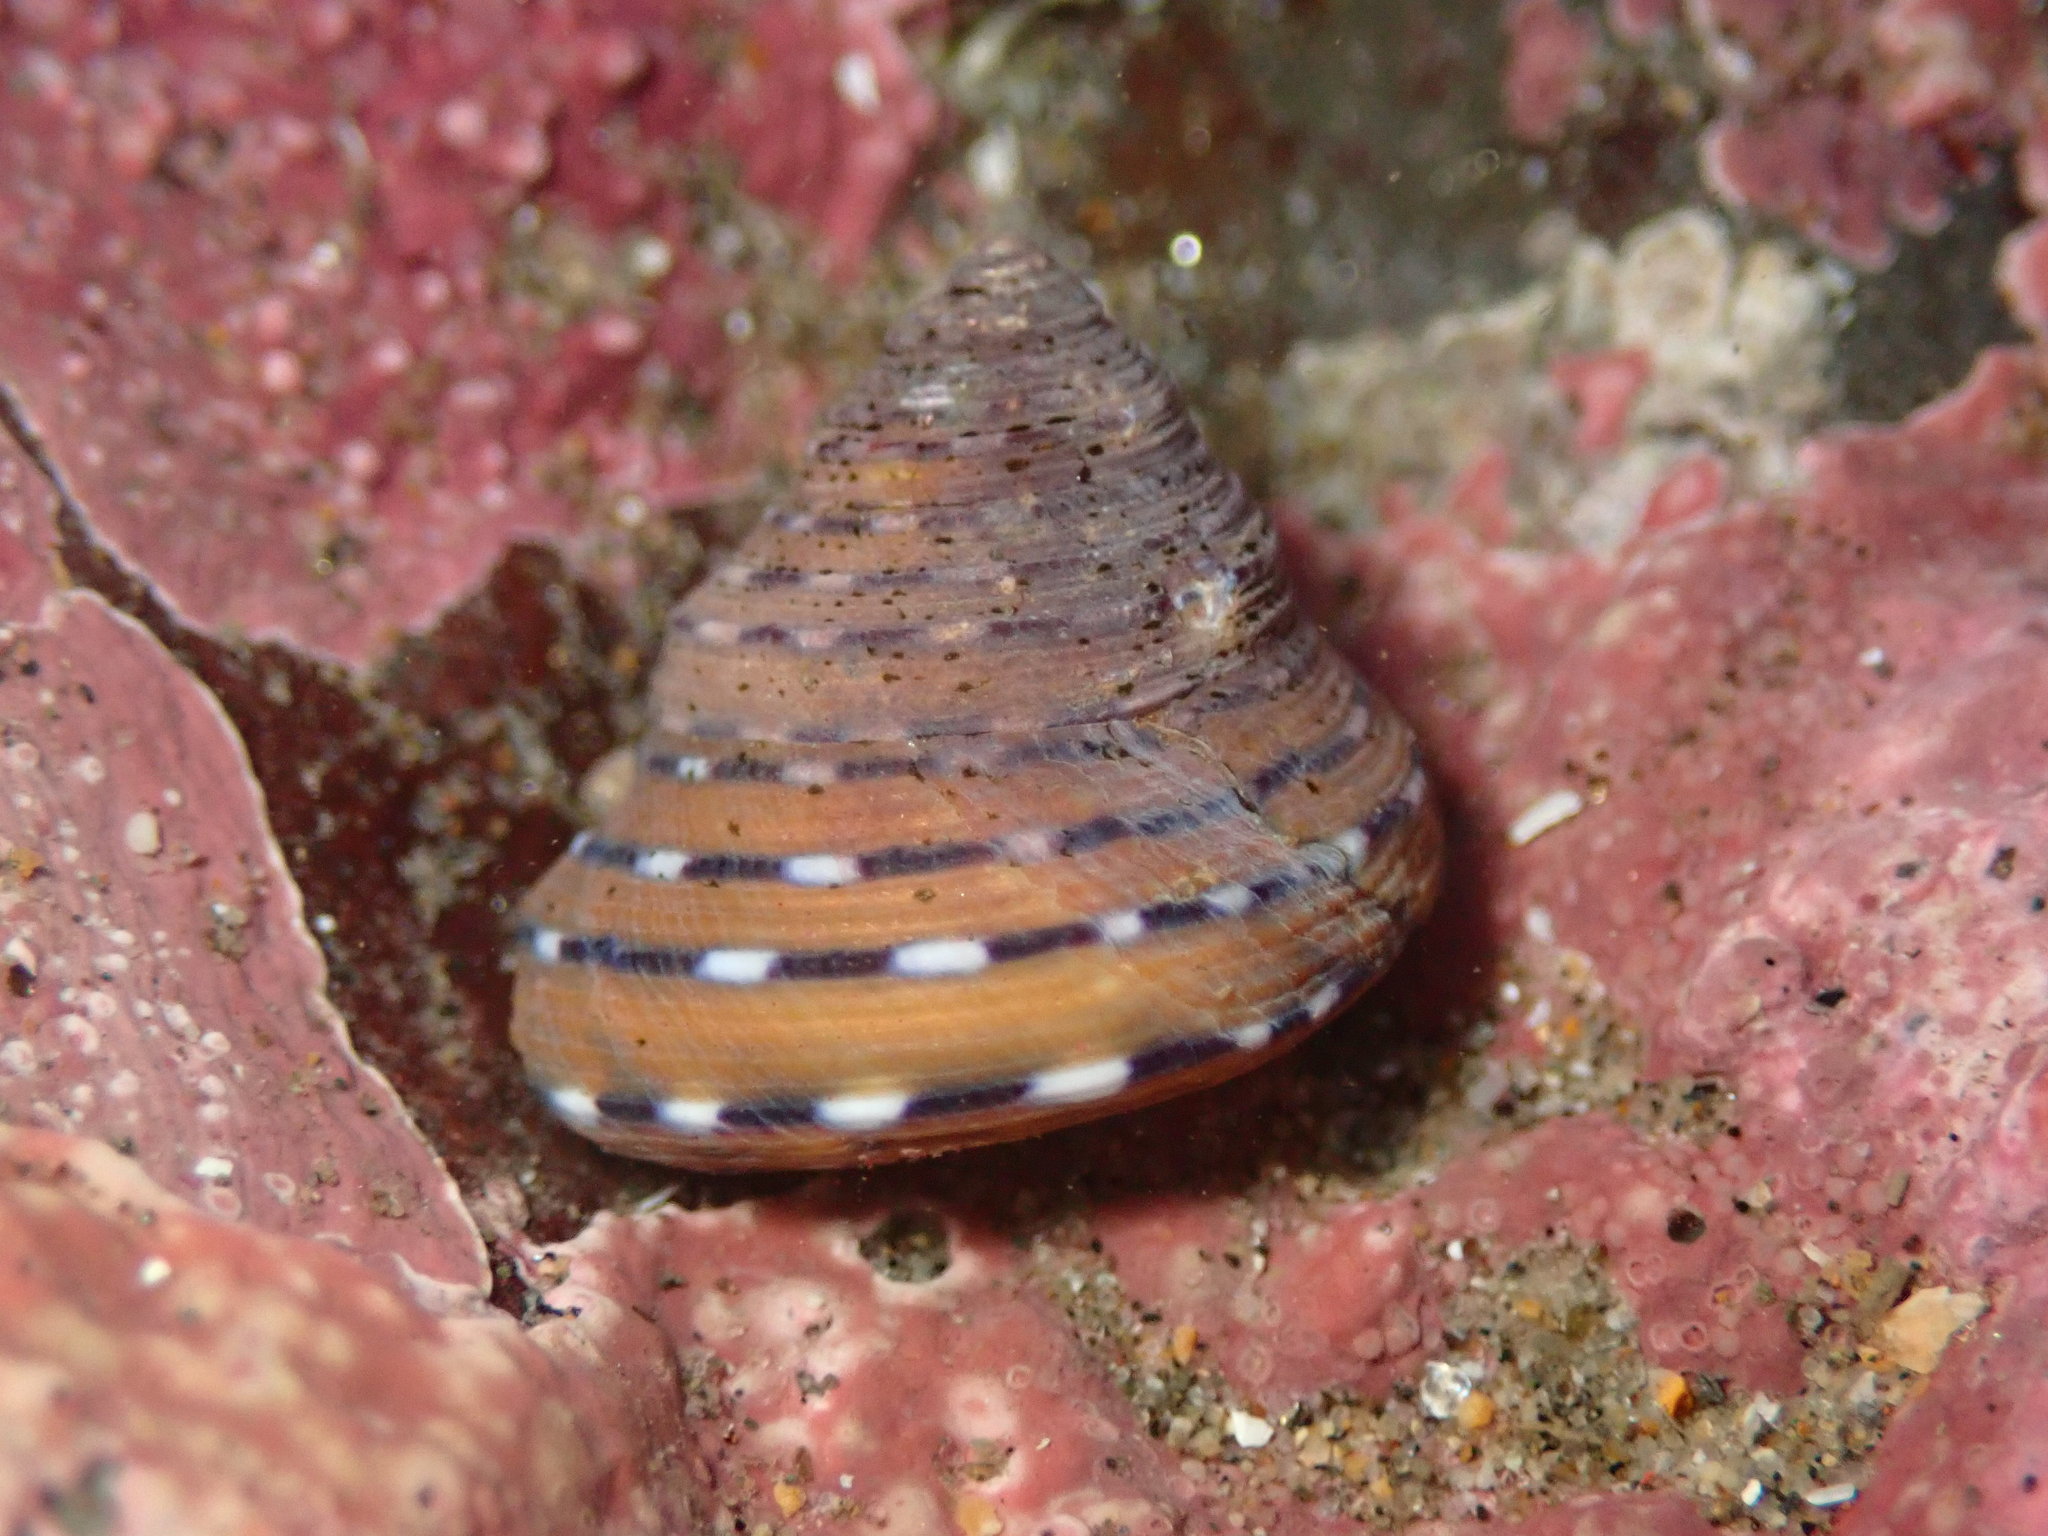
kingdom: Animalia
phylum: Mollusca
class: Gastropoda
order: Trochida
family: Calliostomatidae
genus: Calliostoma
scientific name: Calliostoma tricolor
